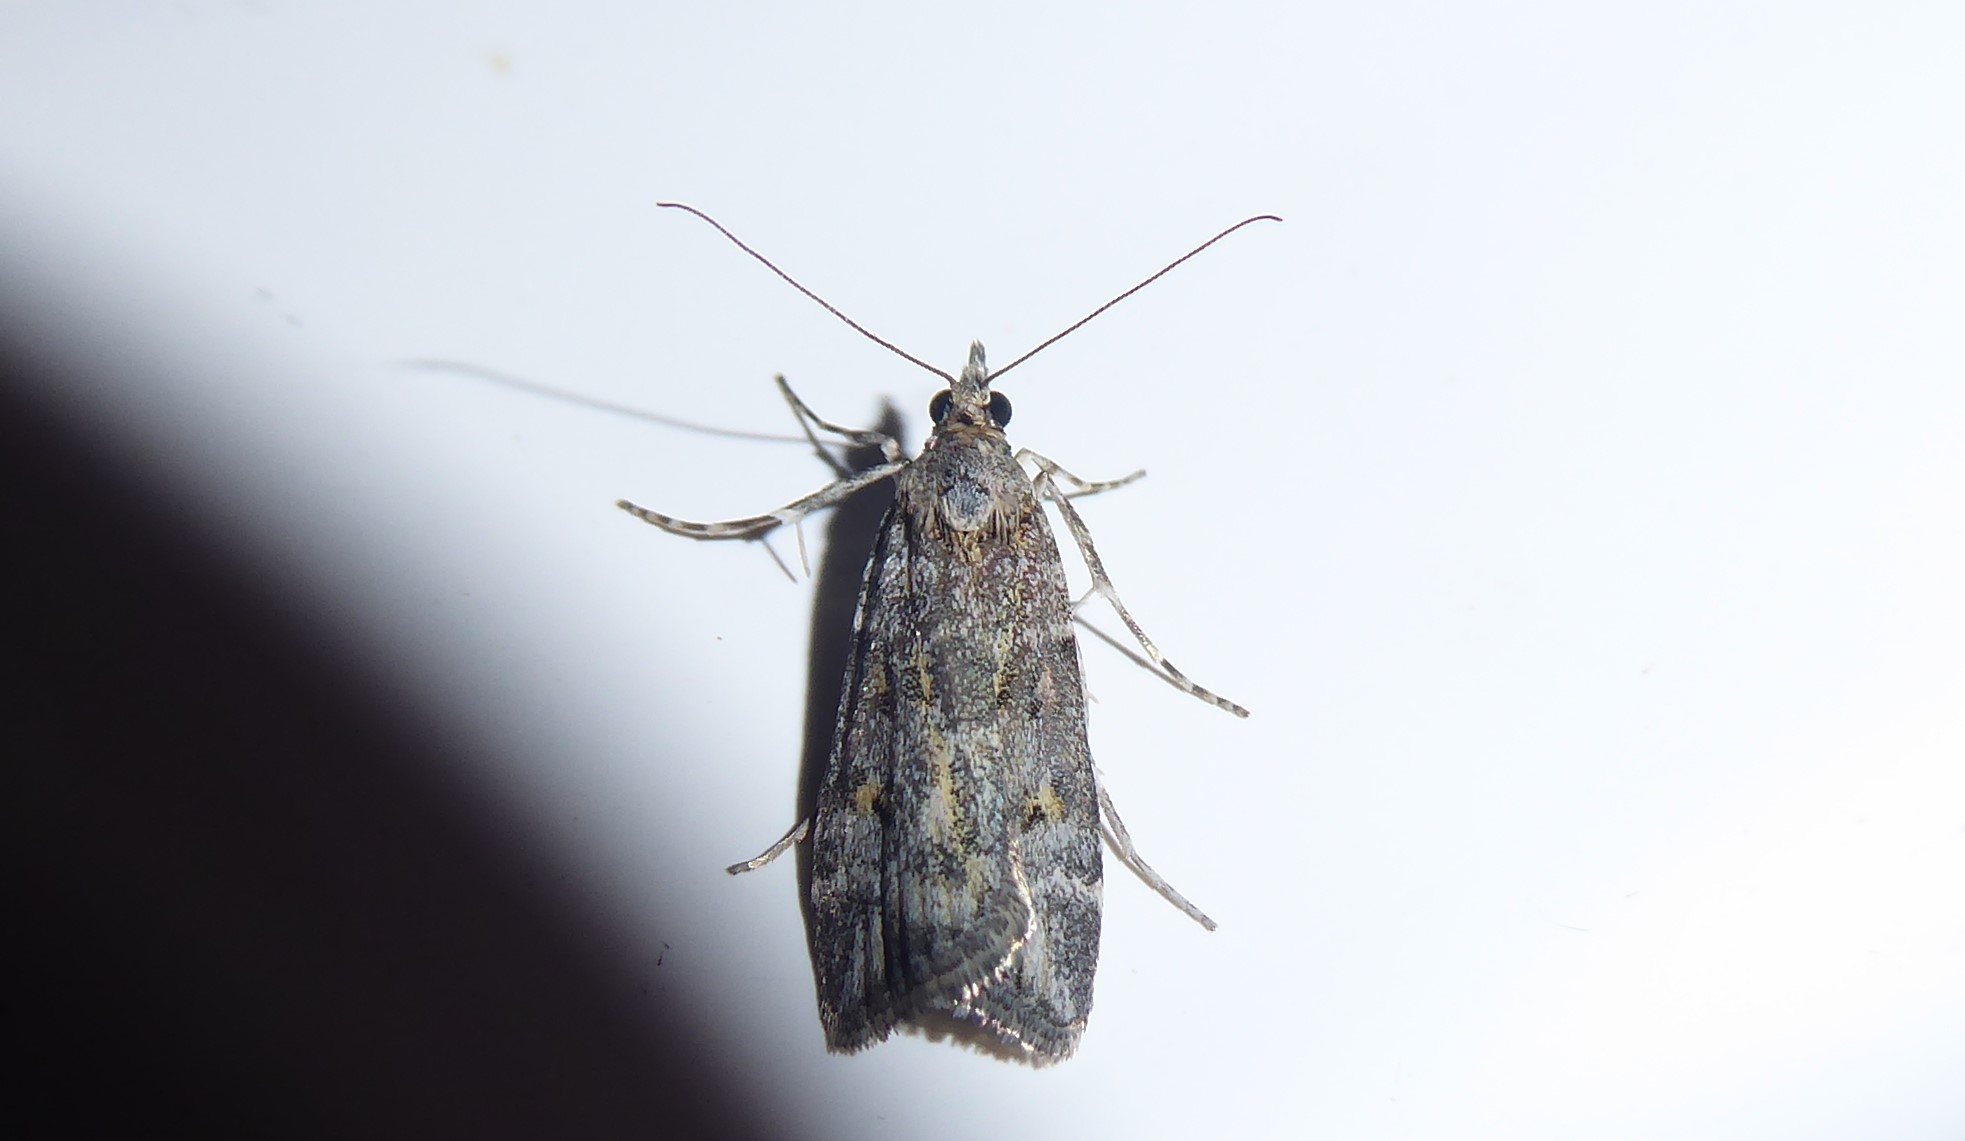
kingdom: Animalia
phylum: Arthropoda
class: Insecta
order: Lepidoptera
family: Crambidae
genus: Eudonia
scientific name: Eudonia diphtheralis
